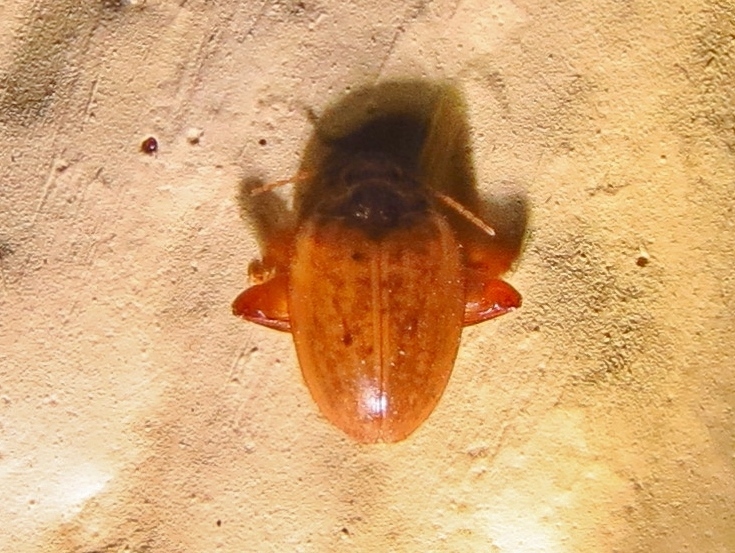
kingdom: Animalia
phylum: Arthropoda
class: Insecta
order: Coleoptera
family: Scirtidae
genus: Ora
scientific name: Ora texana
